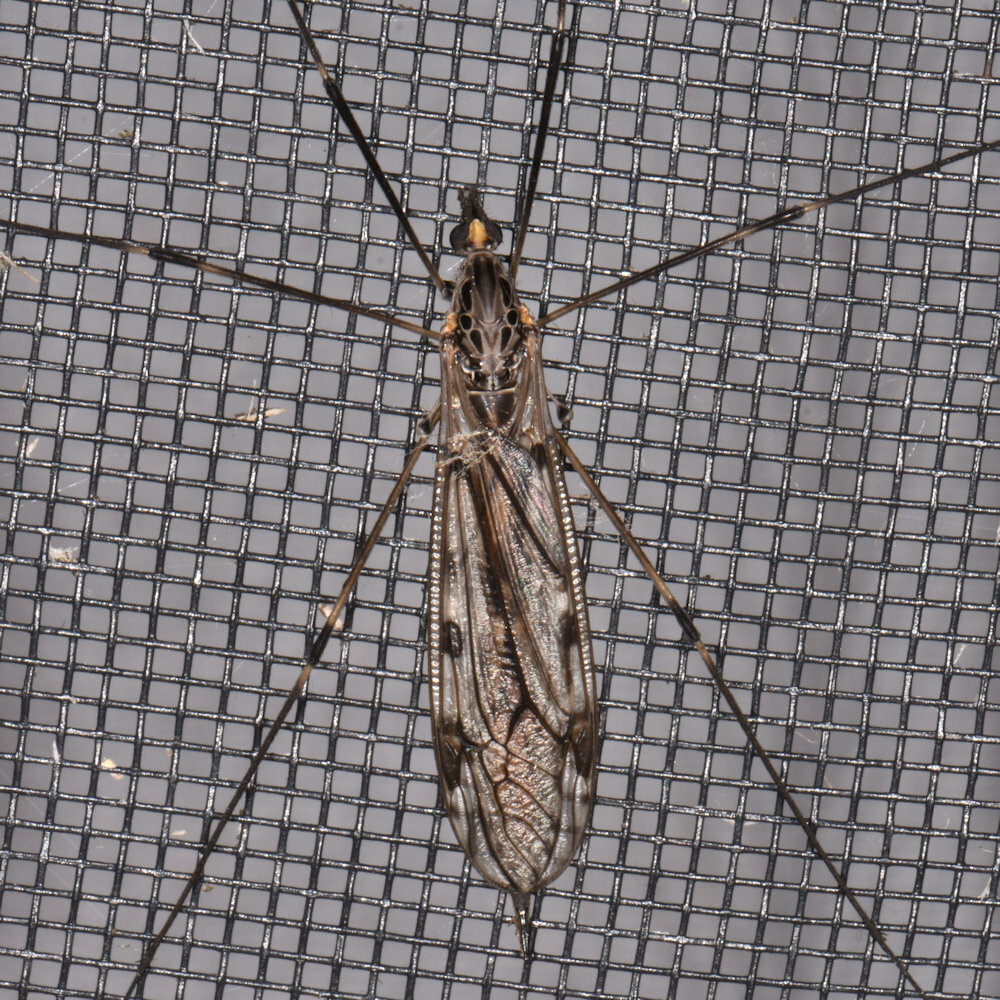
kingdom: Animalia
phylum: Arthropoda
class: Insecta
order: Diptera
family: Tipulidae
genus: Tipula
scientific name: Tipula abdominalis
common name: Giant crane fly
